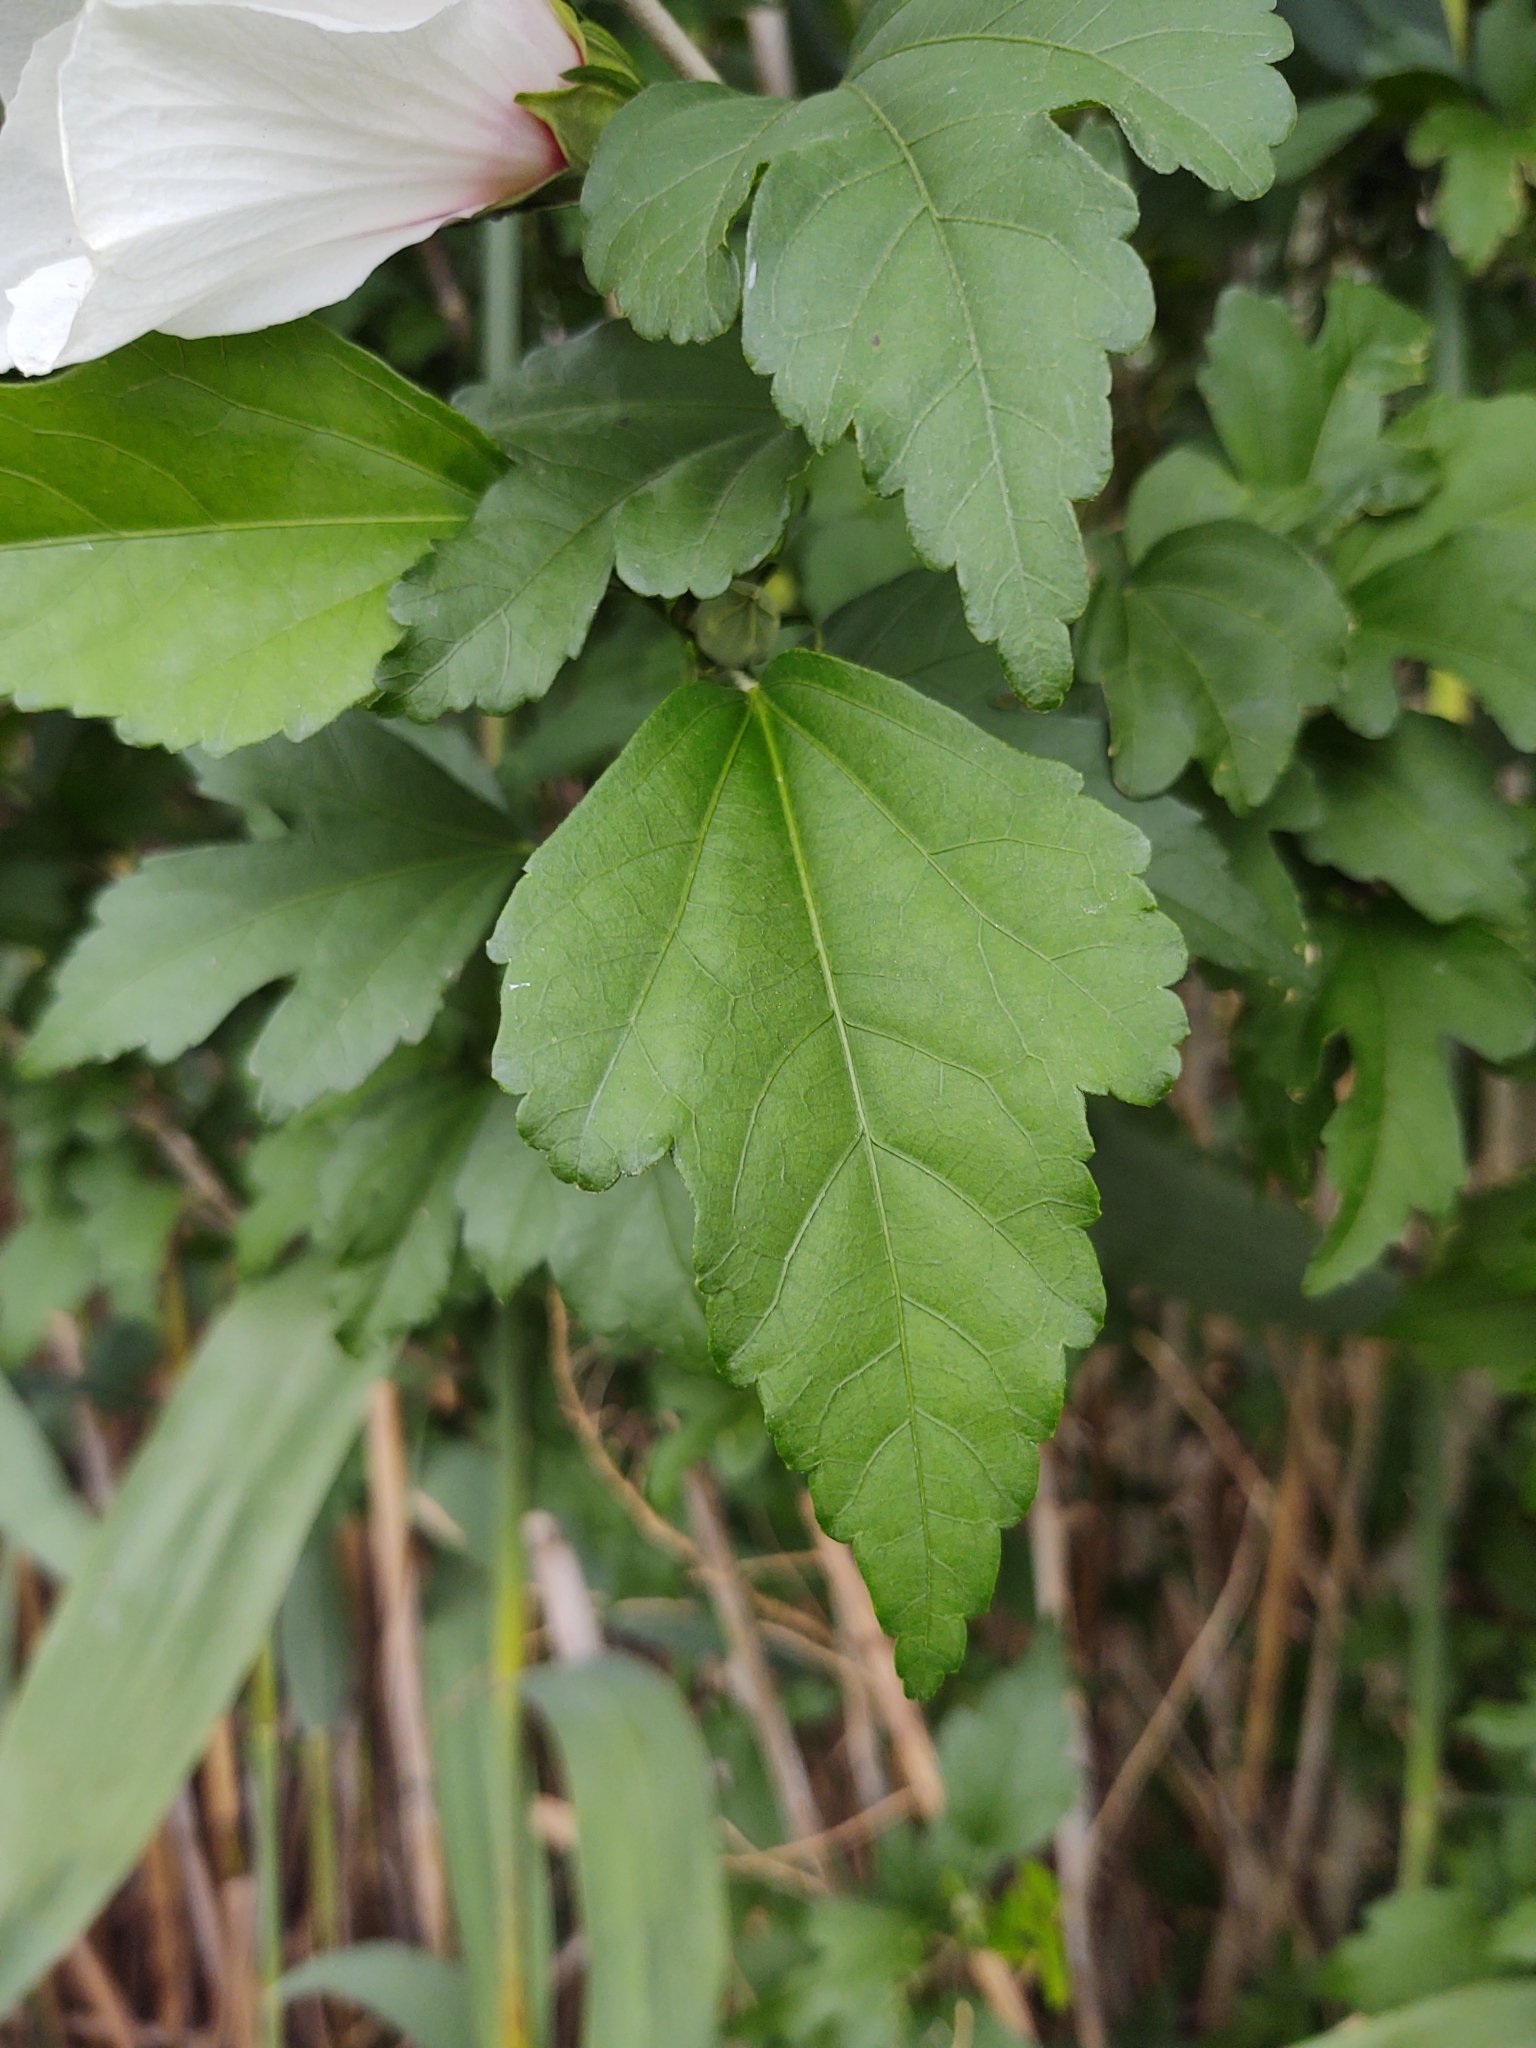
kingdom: Plantae
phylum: Tracheophyta
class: Magnoliopsida
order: Malvales
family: Malvaceae
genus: Hibiscus
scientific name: Hibiscus syriacus
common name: Syrian ketmia
